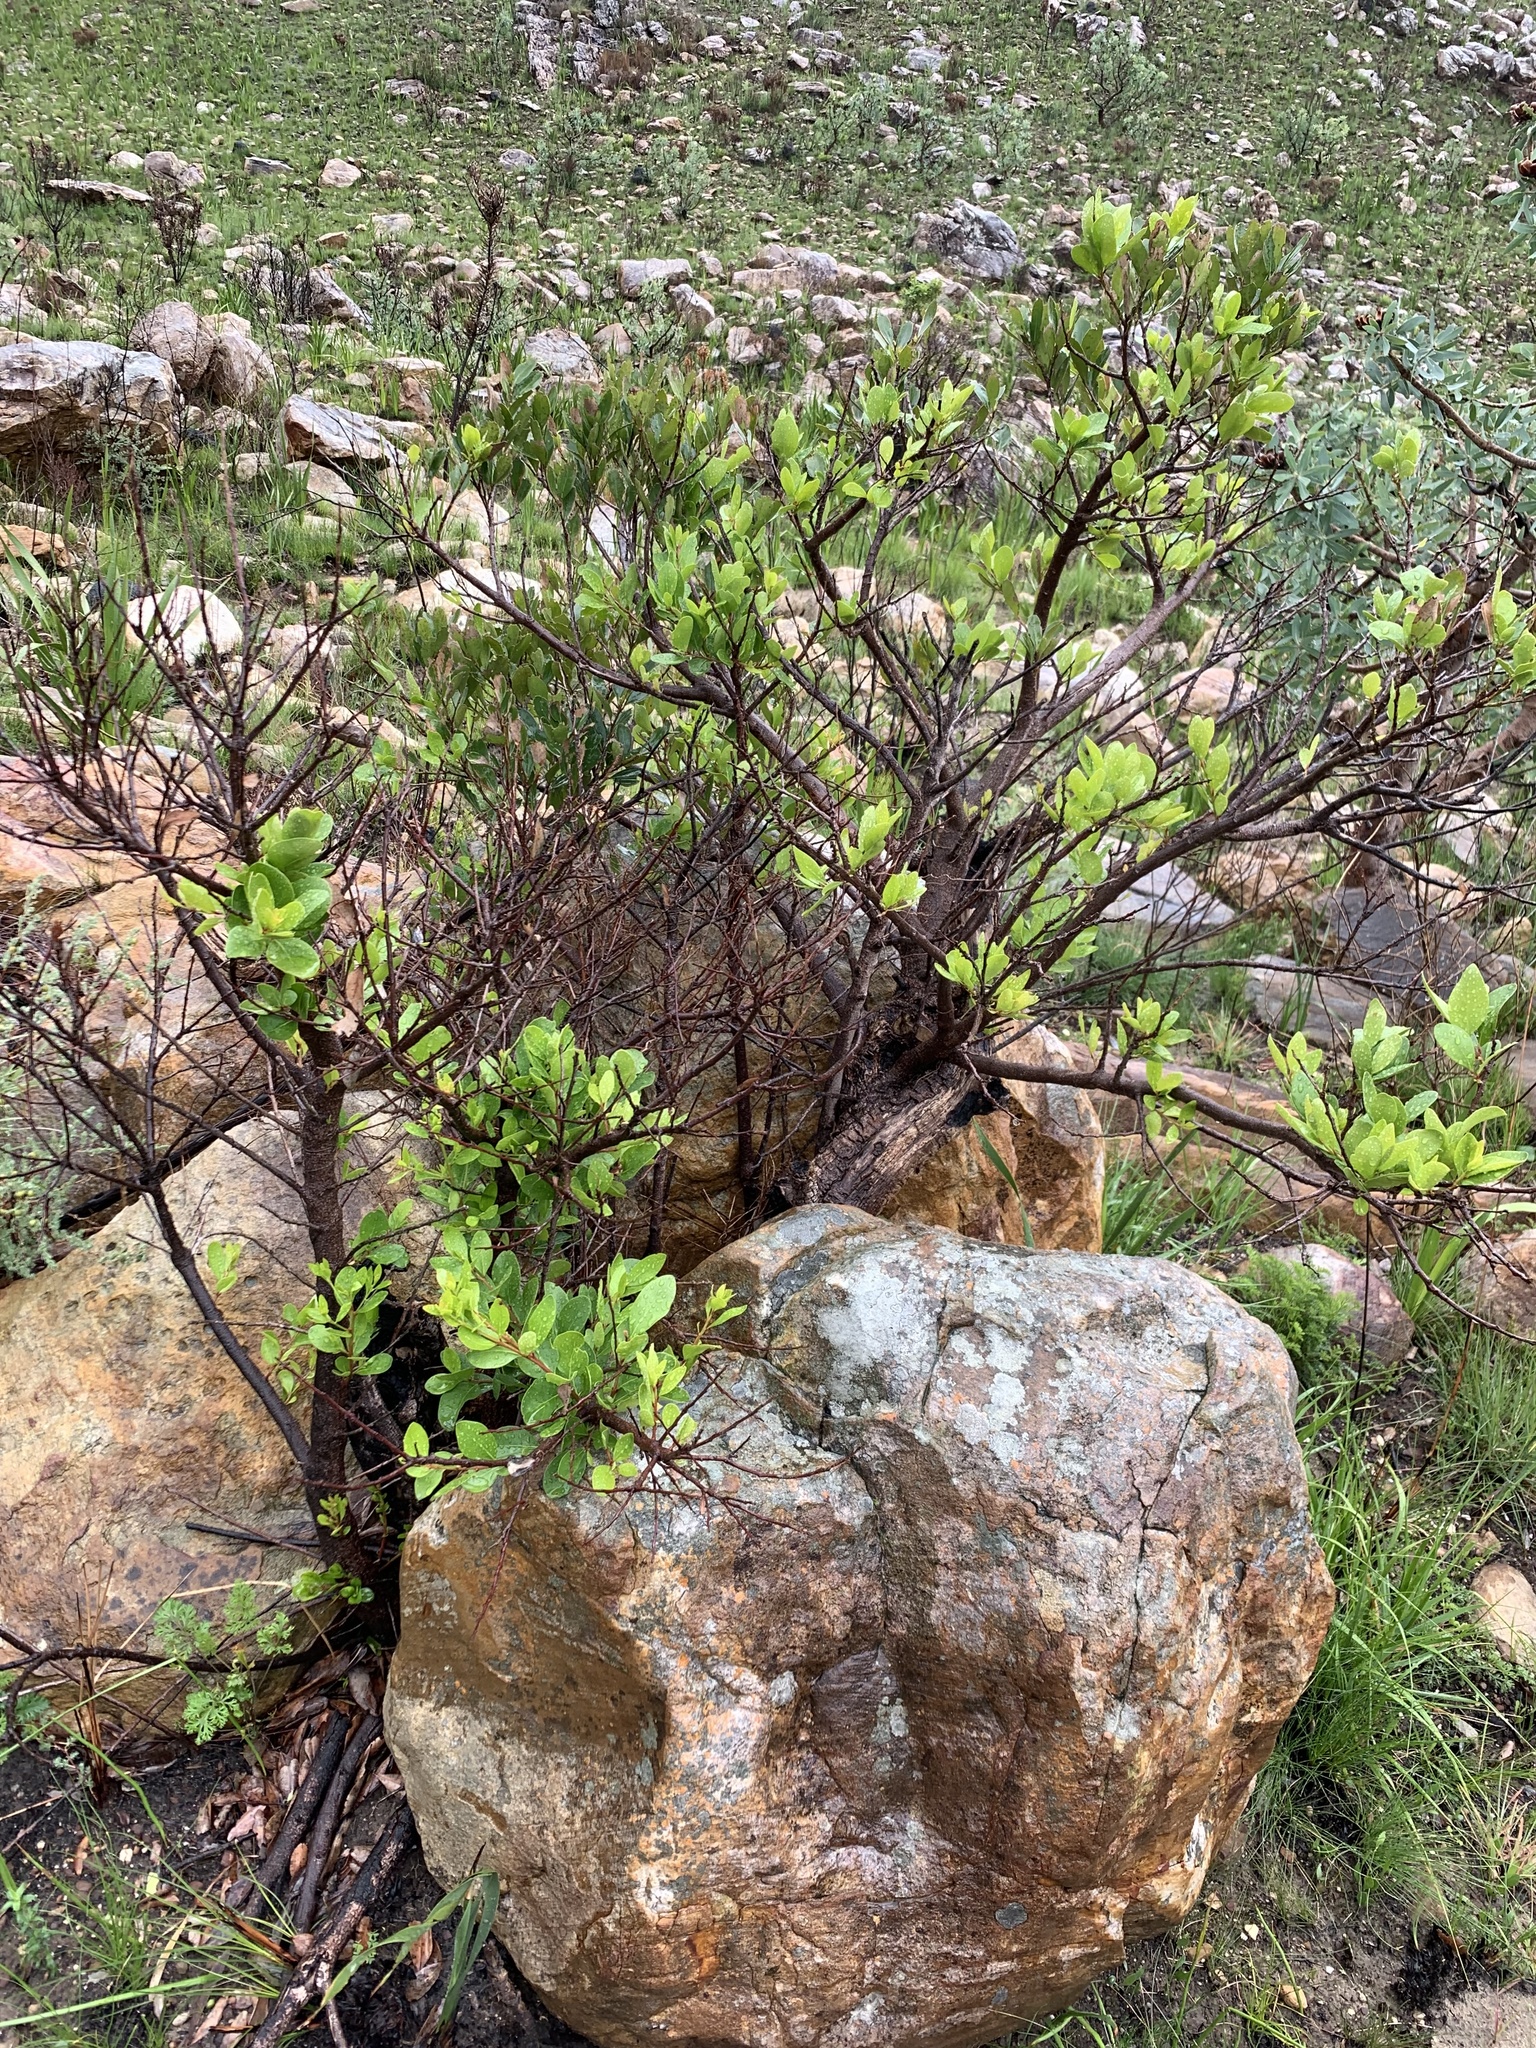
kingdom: Plantae
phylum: Tracheophyta
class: Magnoliopsida
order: Celastrales
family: Celastraceae
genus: Gymnosporia
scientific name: Gymnosporia laurina
